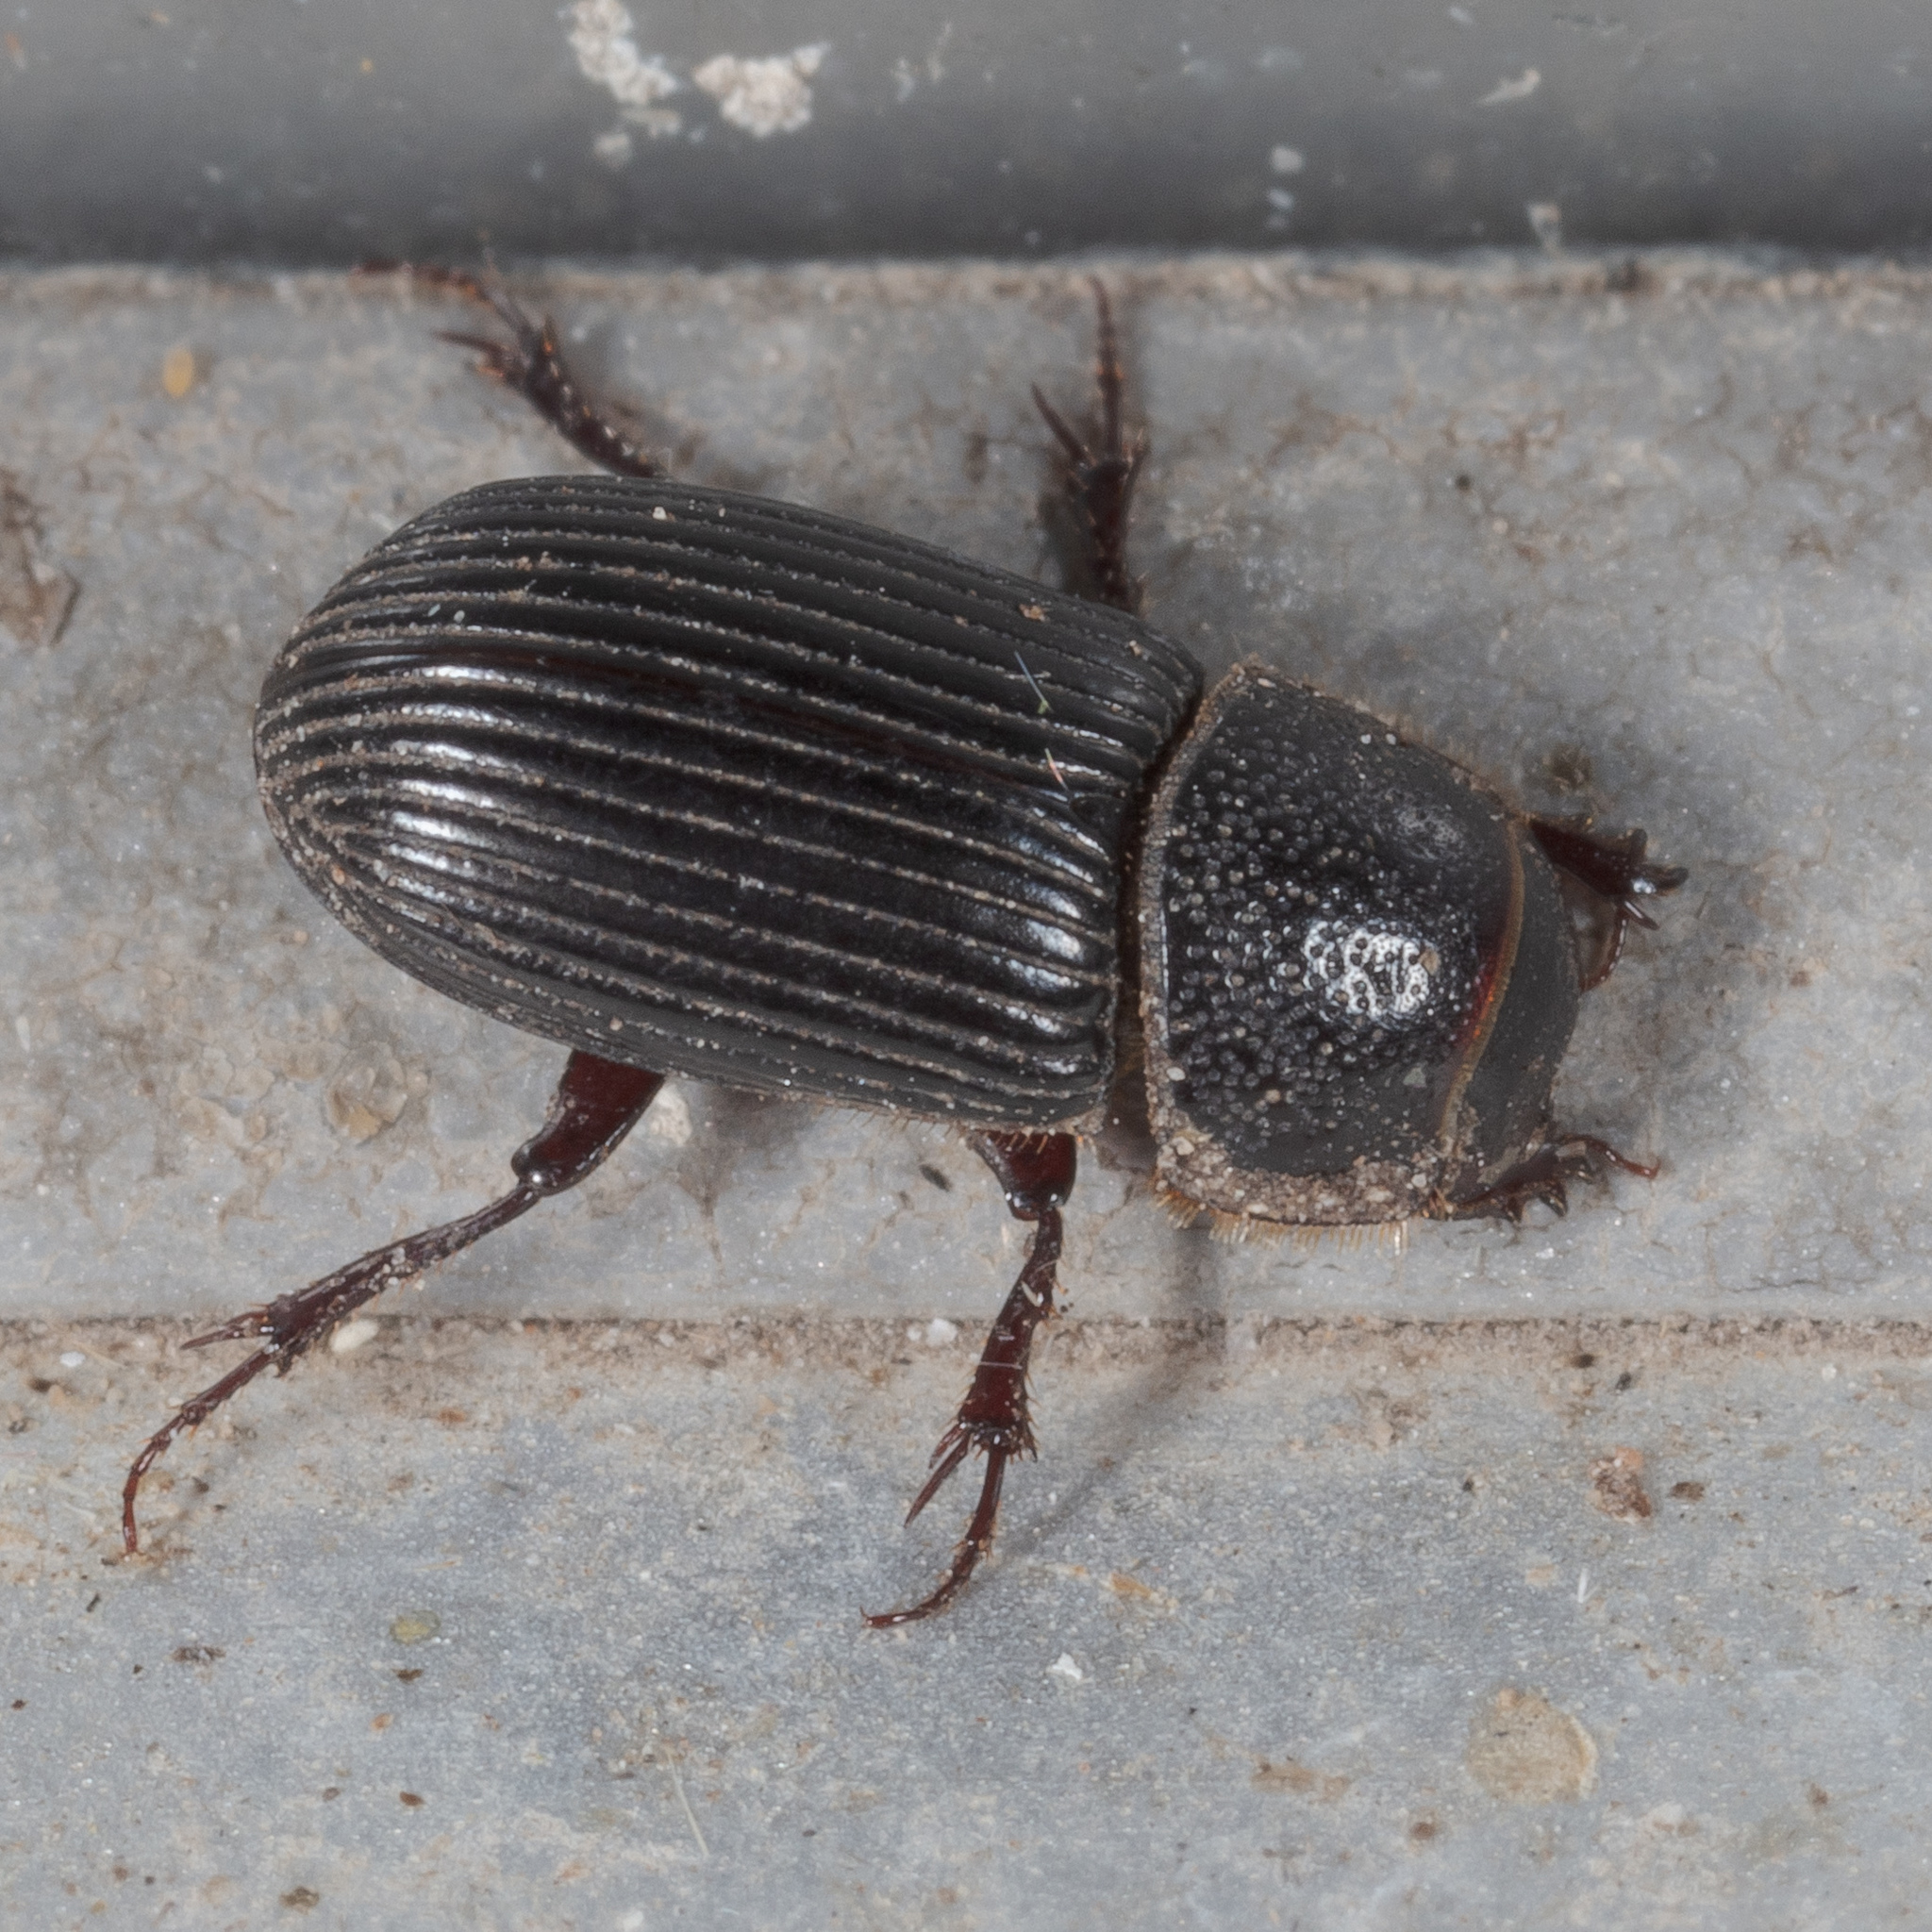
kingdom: Animalia
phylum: Arthropoda
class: Insecta
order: Coleoptera
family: Scarabaeidae
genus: Martineziana
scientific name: Martineziana dutertrei
